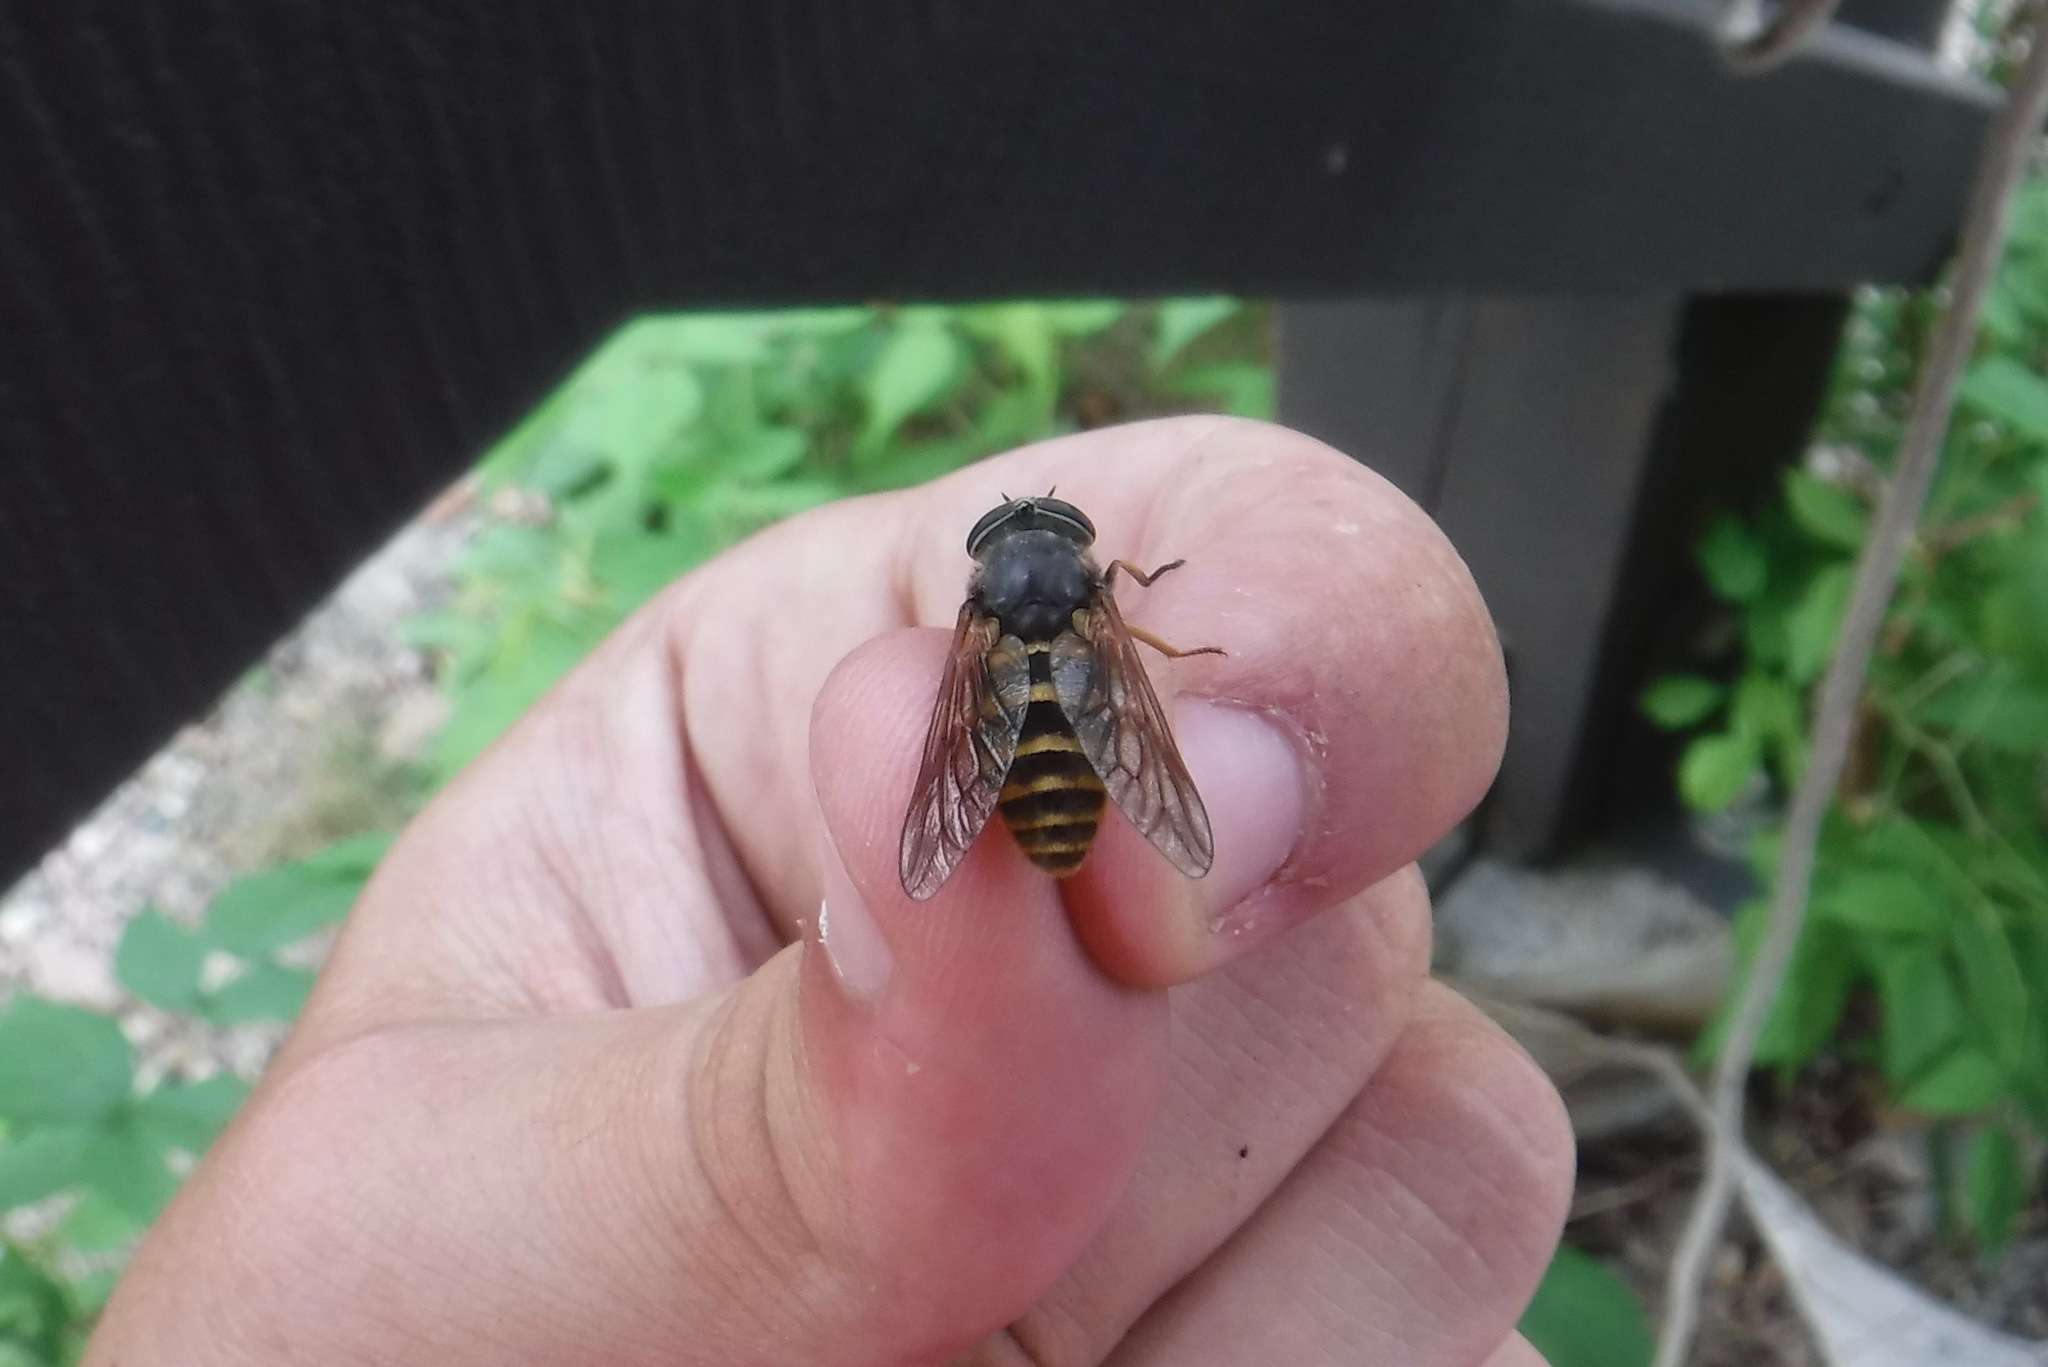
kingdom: Animalia
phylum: Arthropoda
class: Insecta
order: Diptera
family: Tabanidae
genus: Hybomitra
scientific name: Hybomitra zonalis
